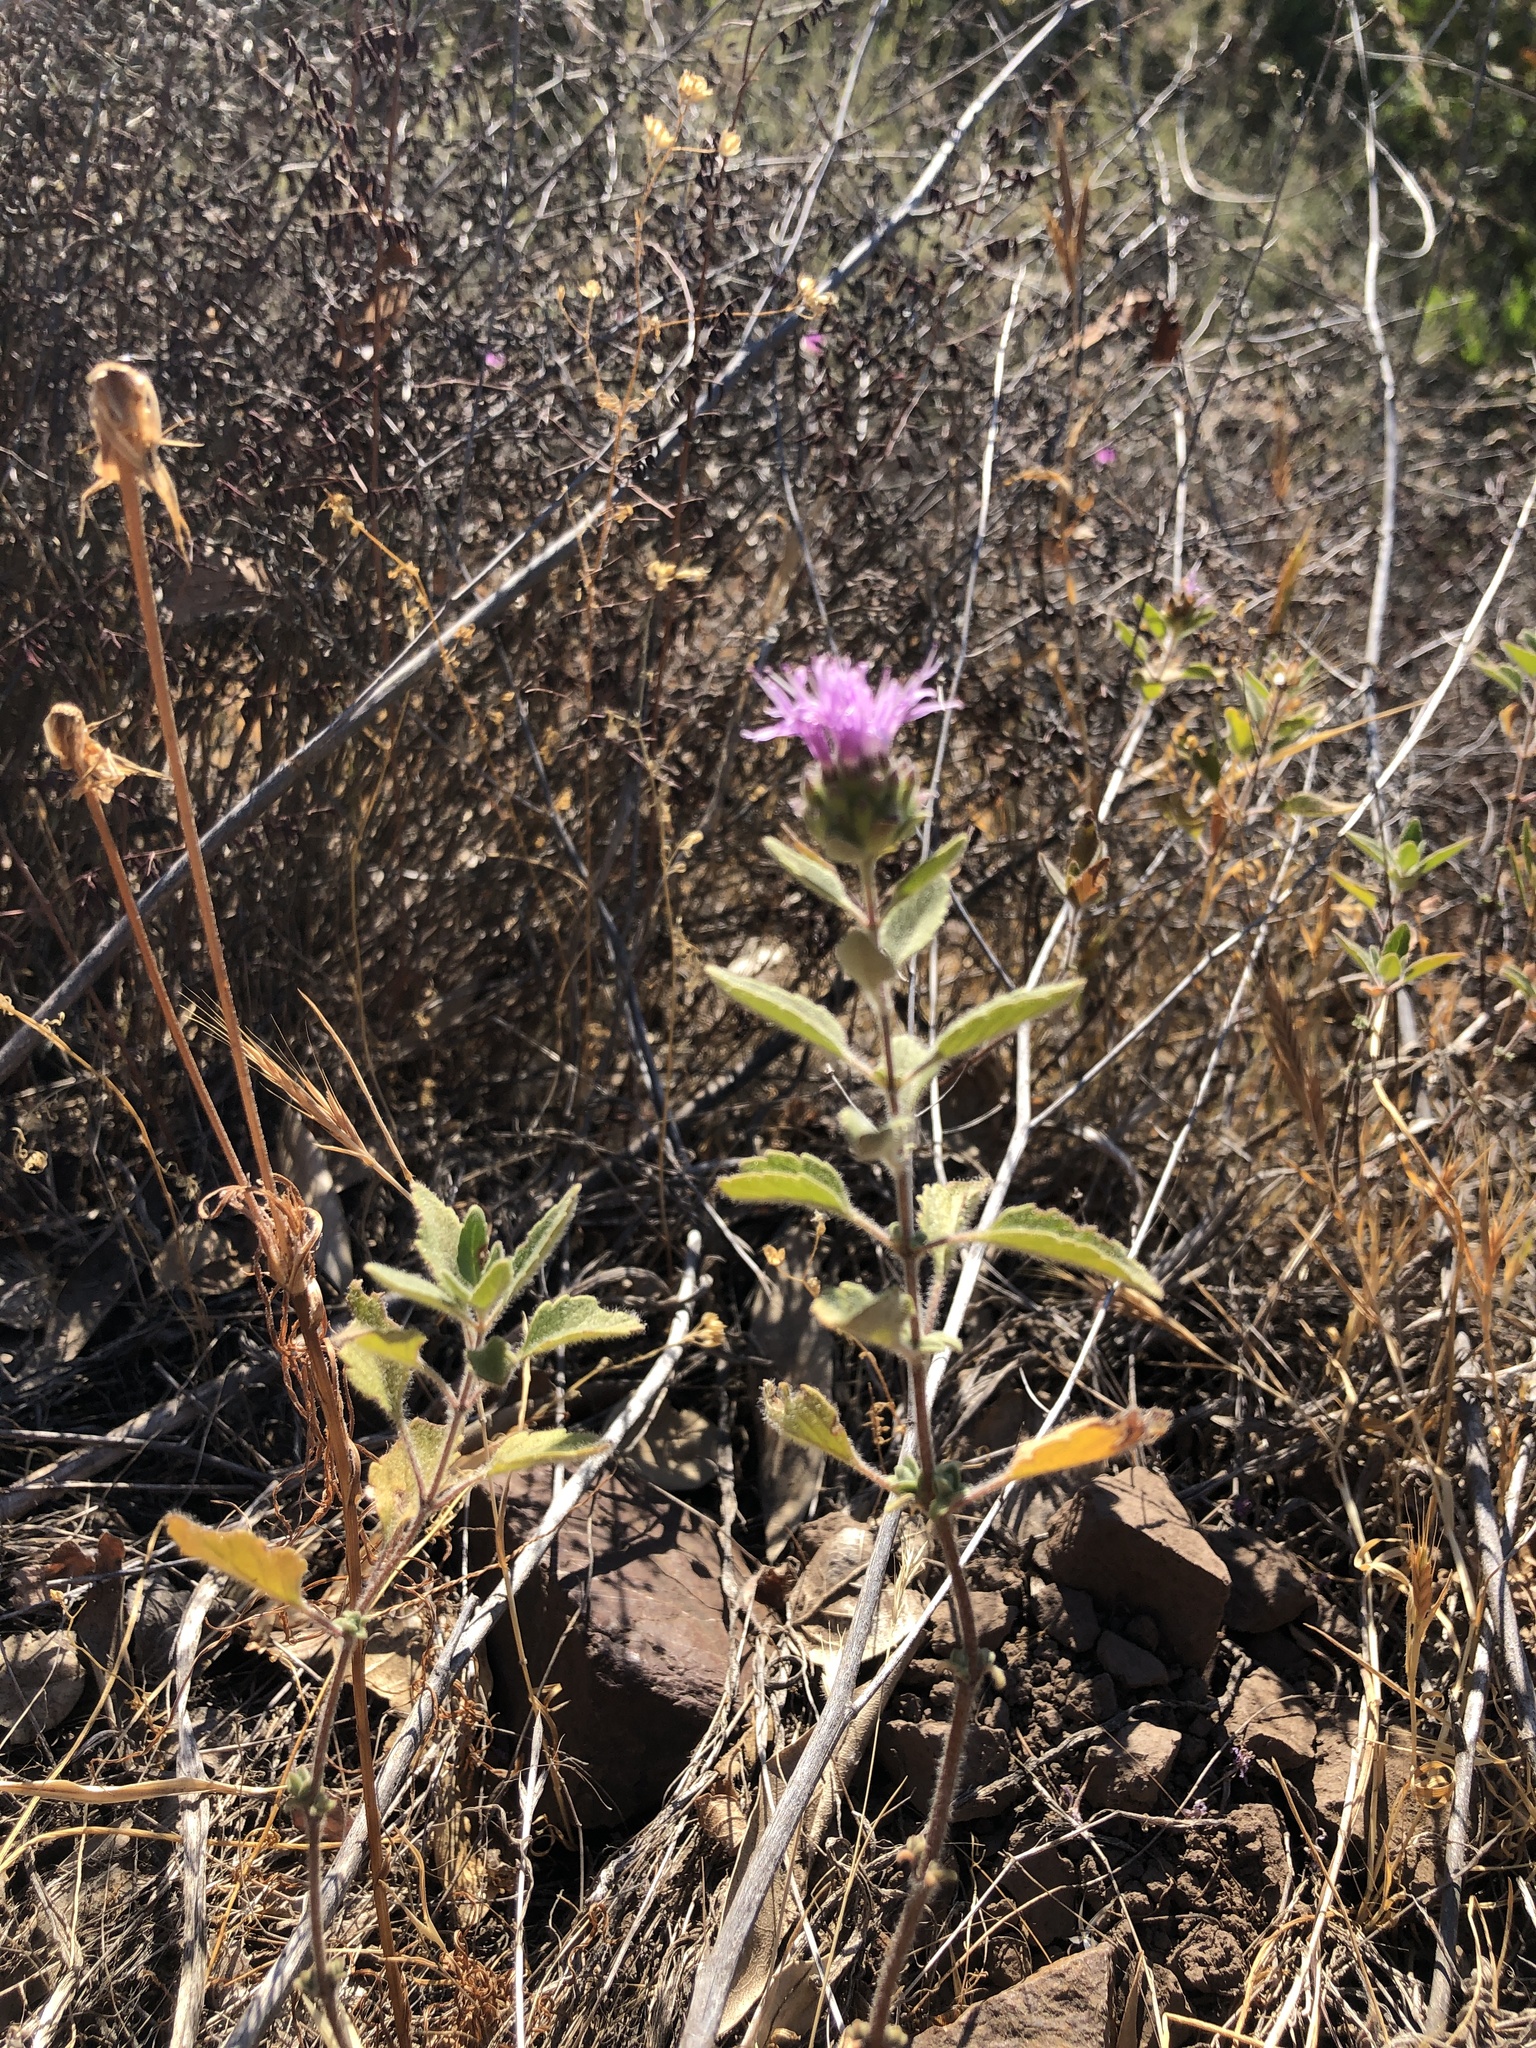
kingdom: Plantae
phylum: Tracheophyta
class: Magnoliopsida
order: Lamiales
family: Lamiaceae
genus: Monardella
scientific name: Monardella odoratissima
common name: Pacific monardella
